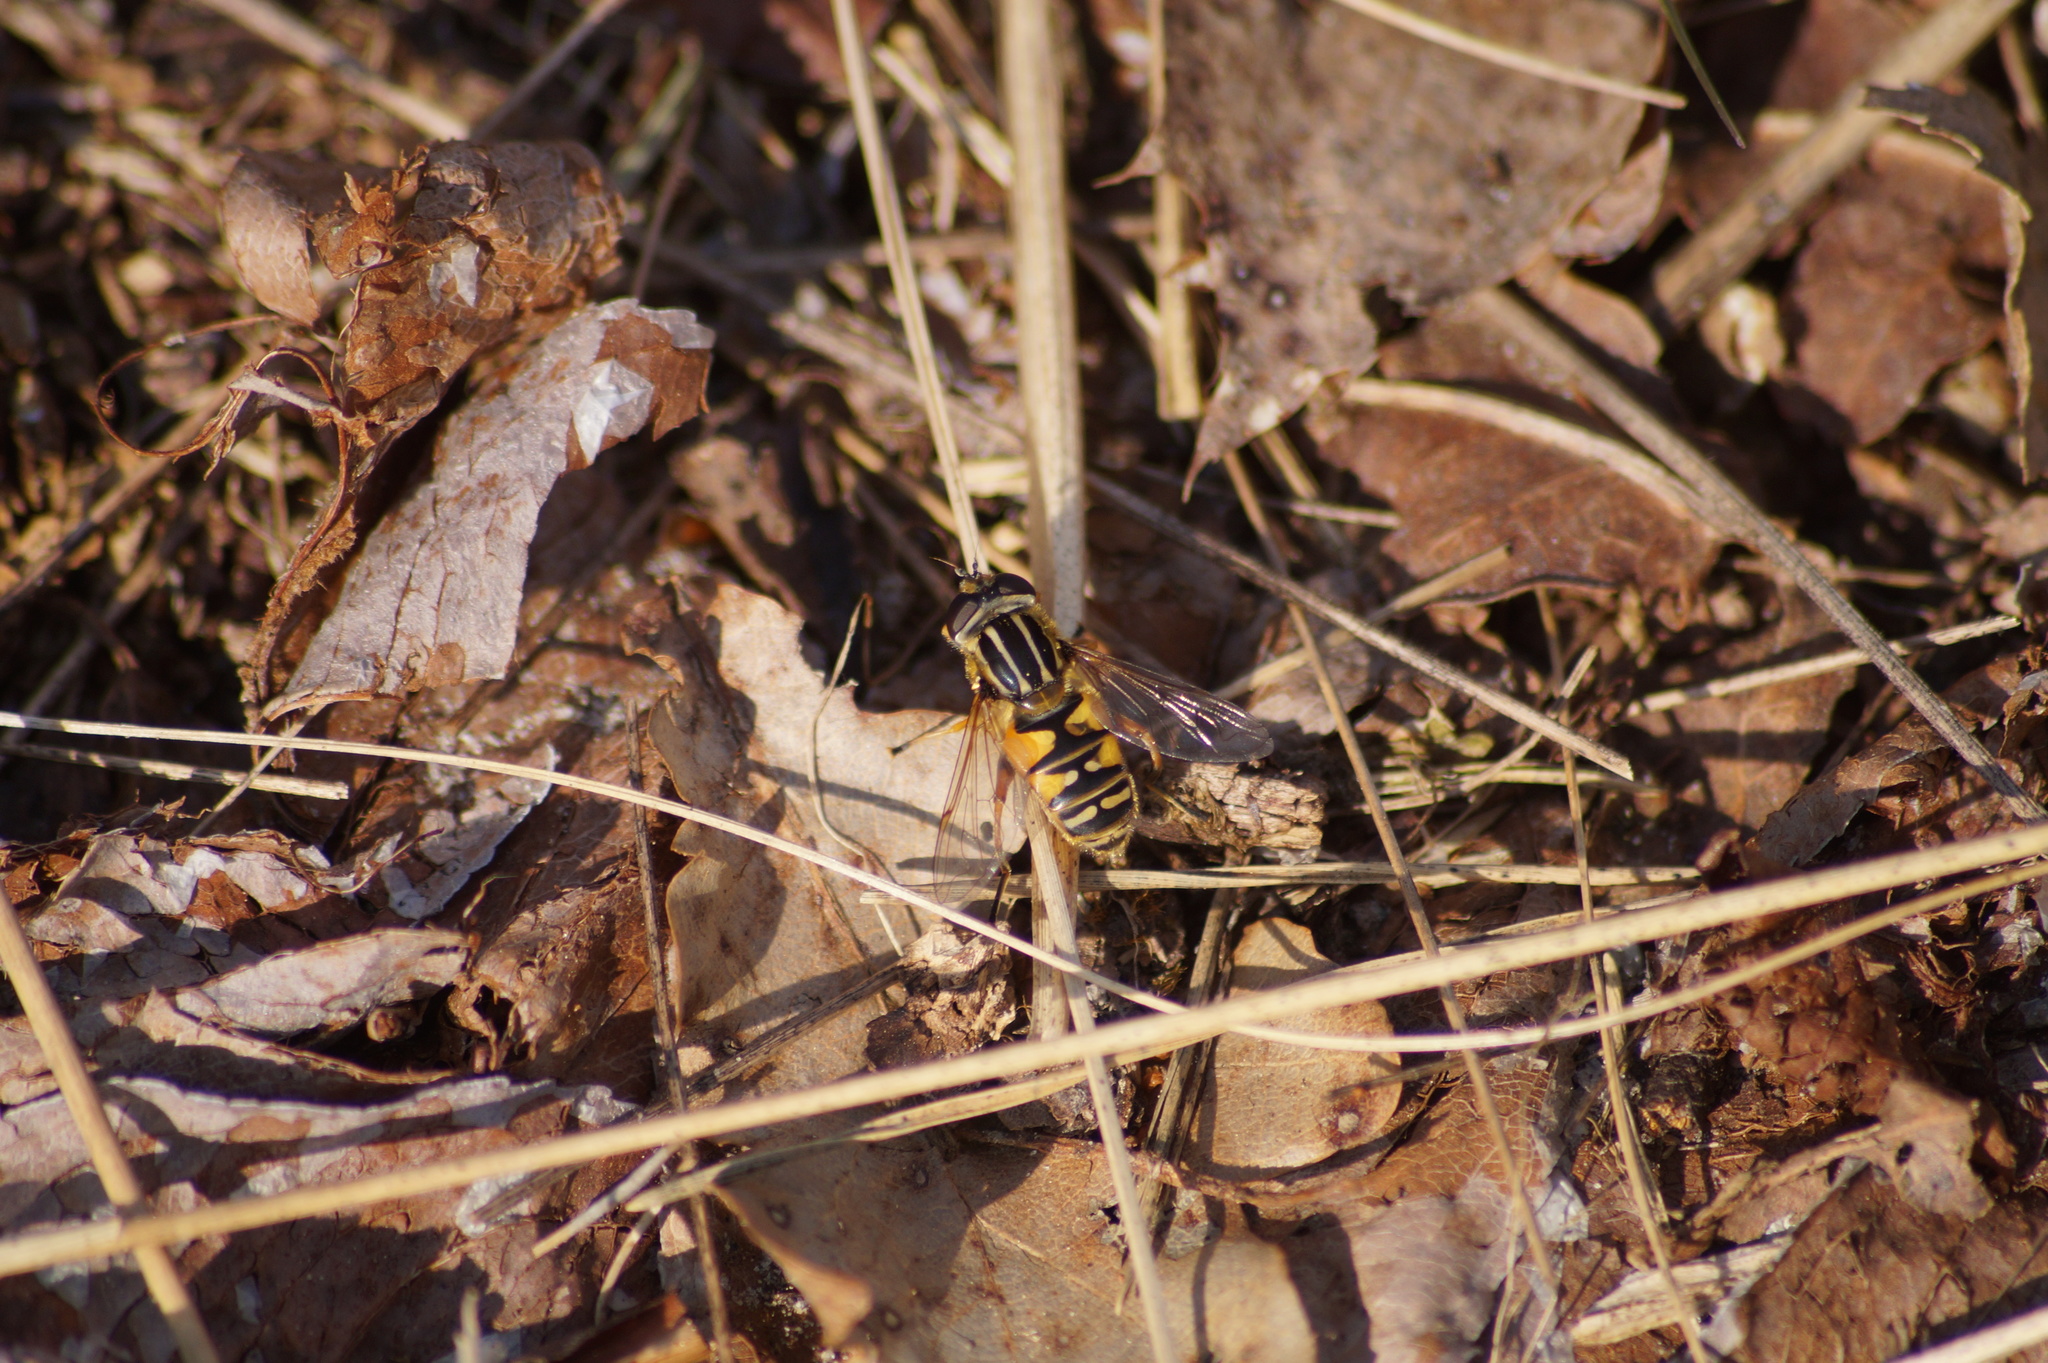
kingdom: Animalia
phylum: Arthropoda
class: Insecta
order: Diptera
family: Syrphidae
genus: Helophilus
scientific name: Helophilus pendulus
